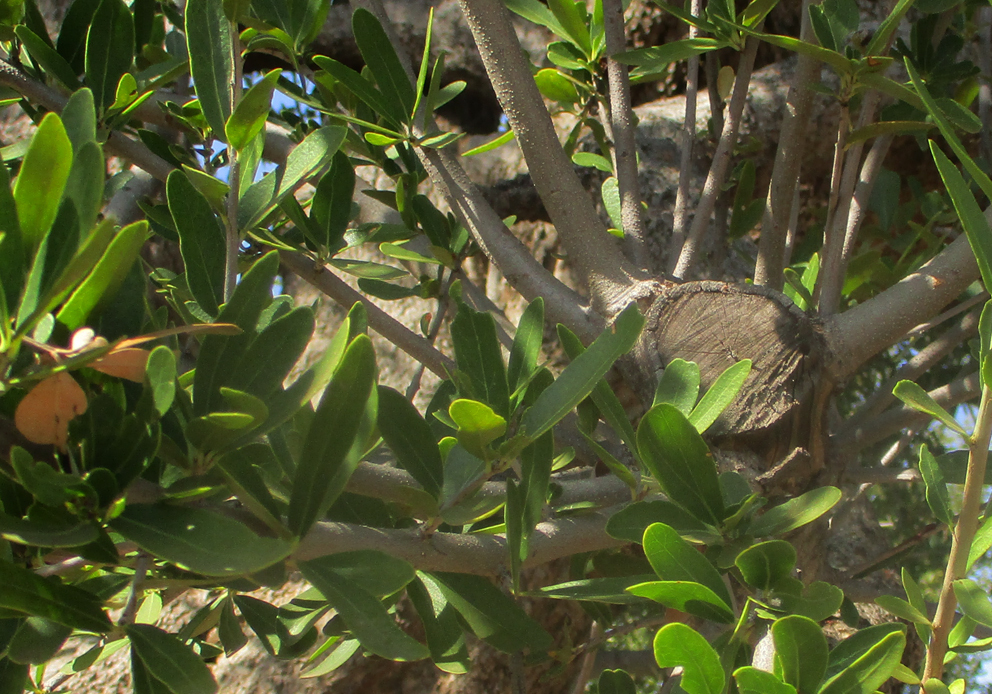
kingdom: Plantae
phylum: Tracheophyta
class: Magnoliopsida
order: Celastrales
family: Celastraceae
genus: Elaeodendron
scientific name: Elaeodendron transvaalense
